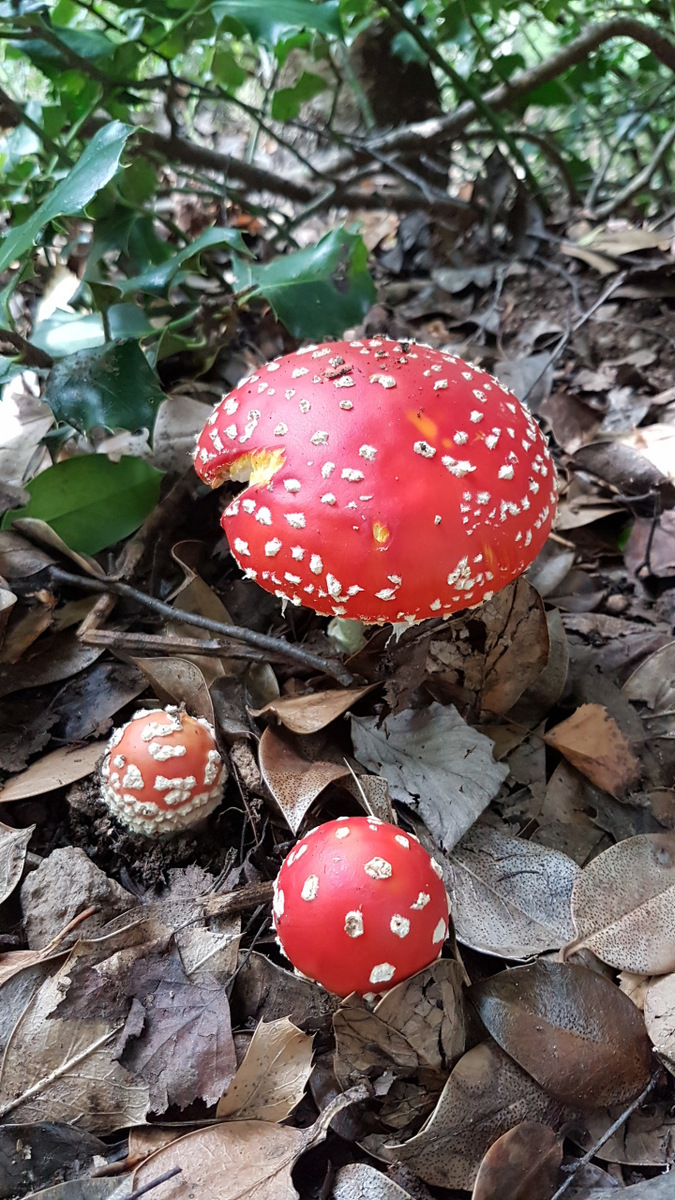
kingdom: Fungi
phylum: Basidiomycota
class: Agaricomycetes
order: Agaricales
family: Amanitaceae
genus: Amanita
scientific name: Amanita muscaria
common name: Fly agaric
